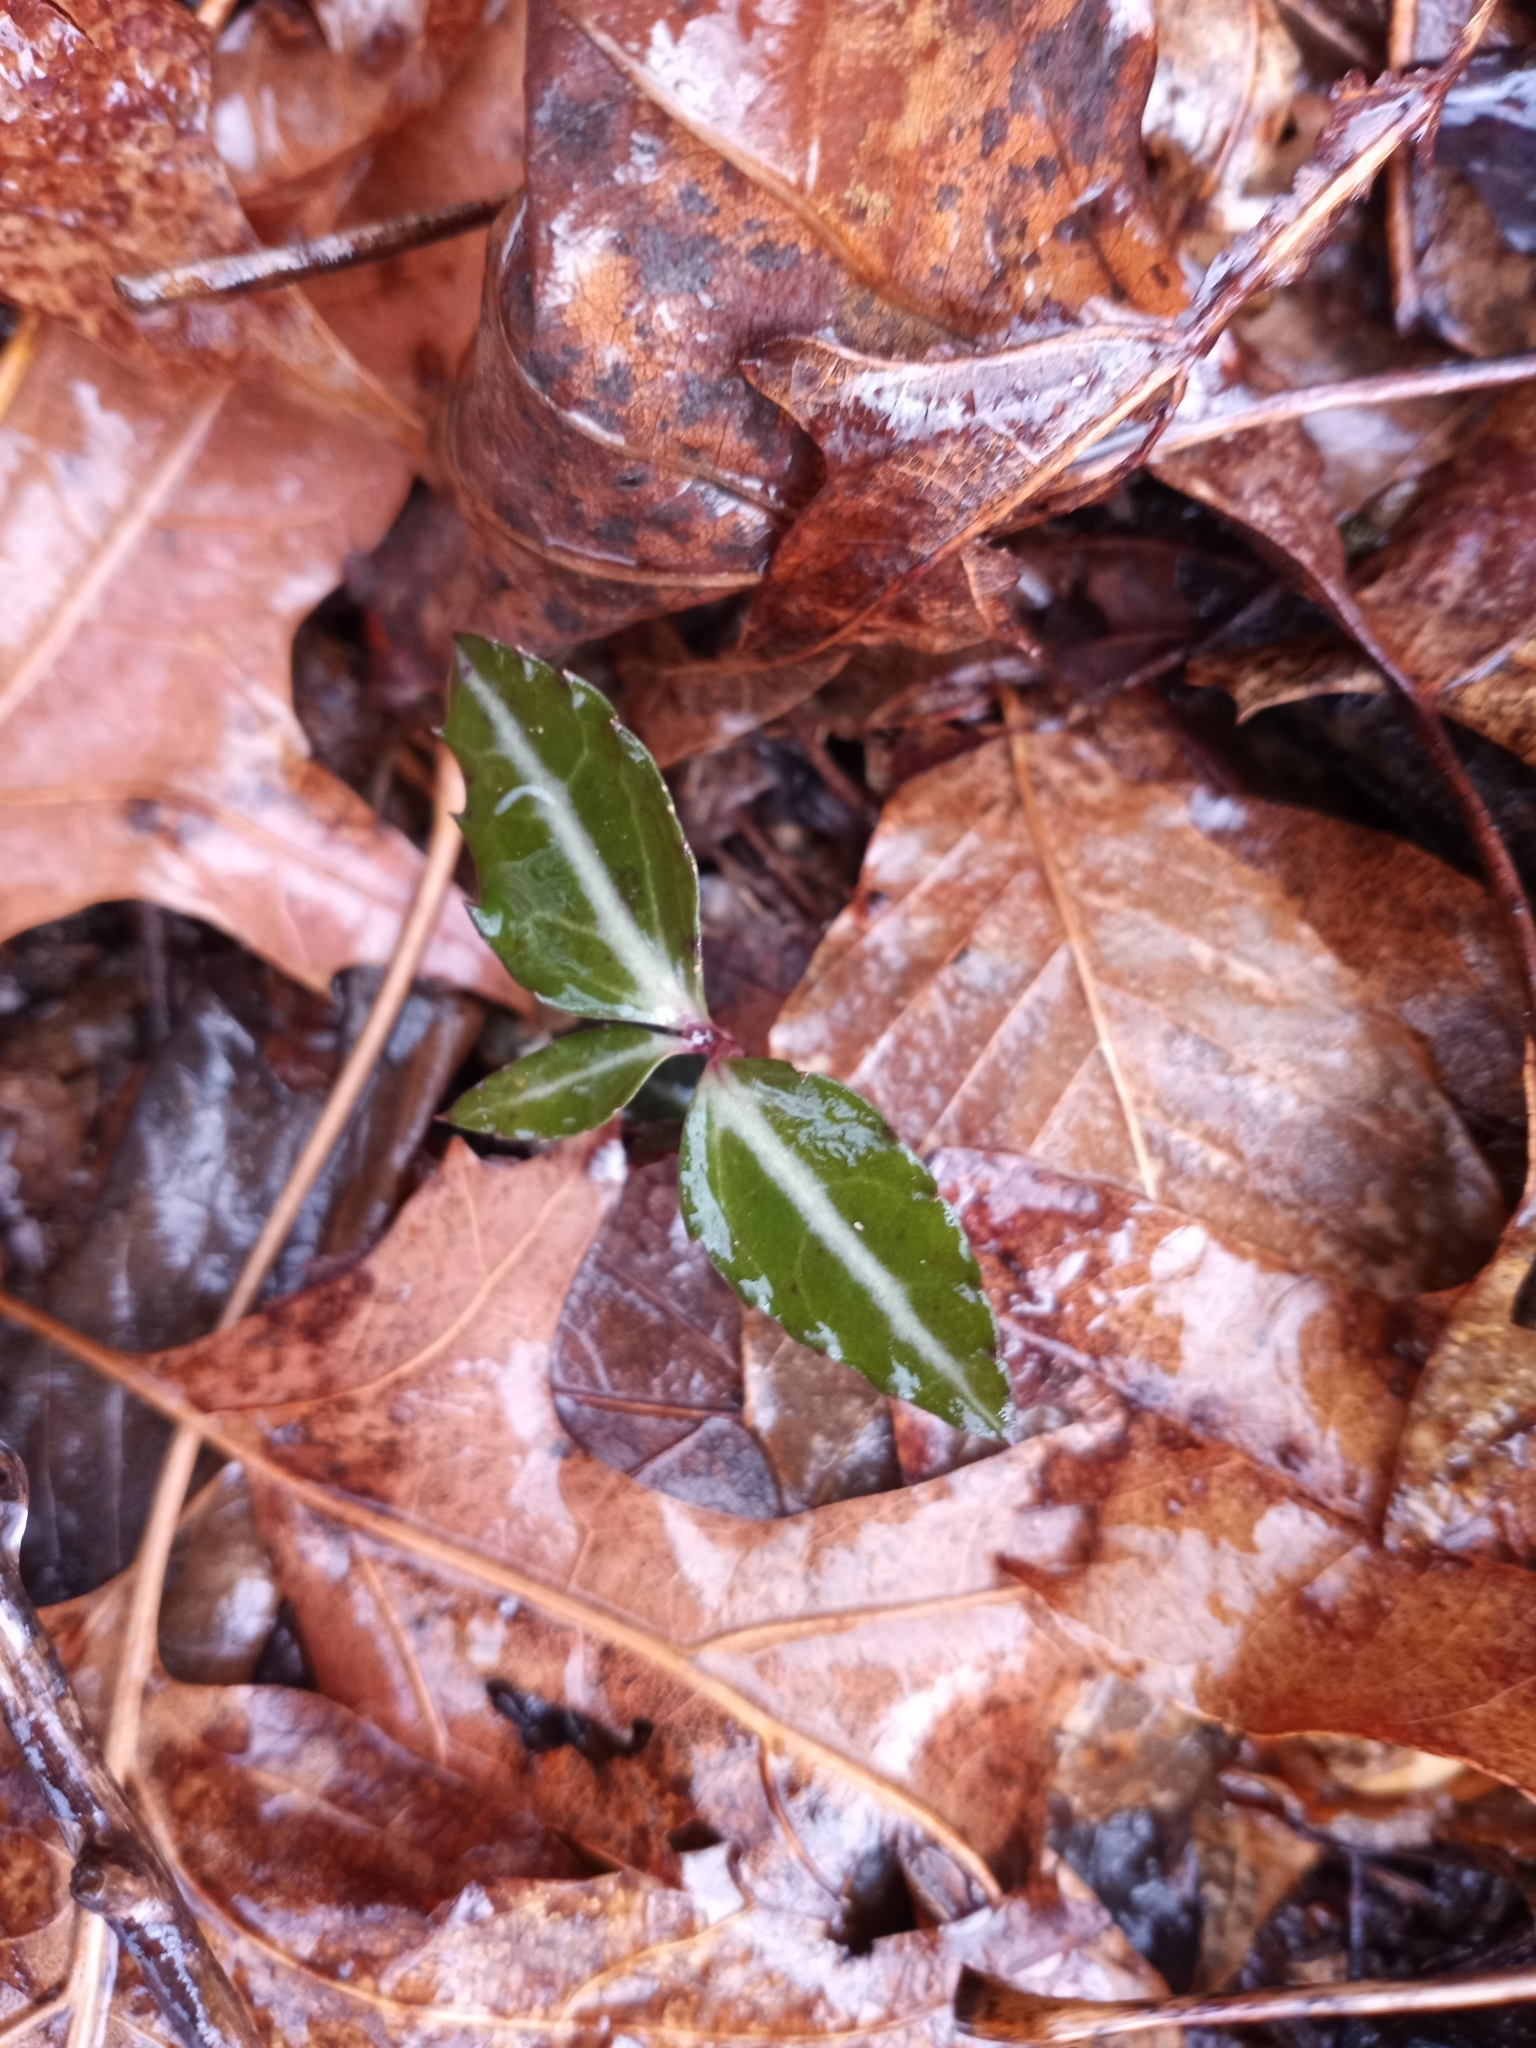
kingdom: Plantae
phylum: Tracheophyta
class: Magnoliopsida
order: Ericales
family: Ericaceae
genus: Chimaphila
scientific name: Chimaphila maculata
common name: Spotted pipsissewa
